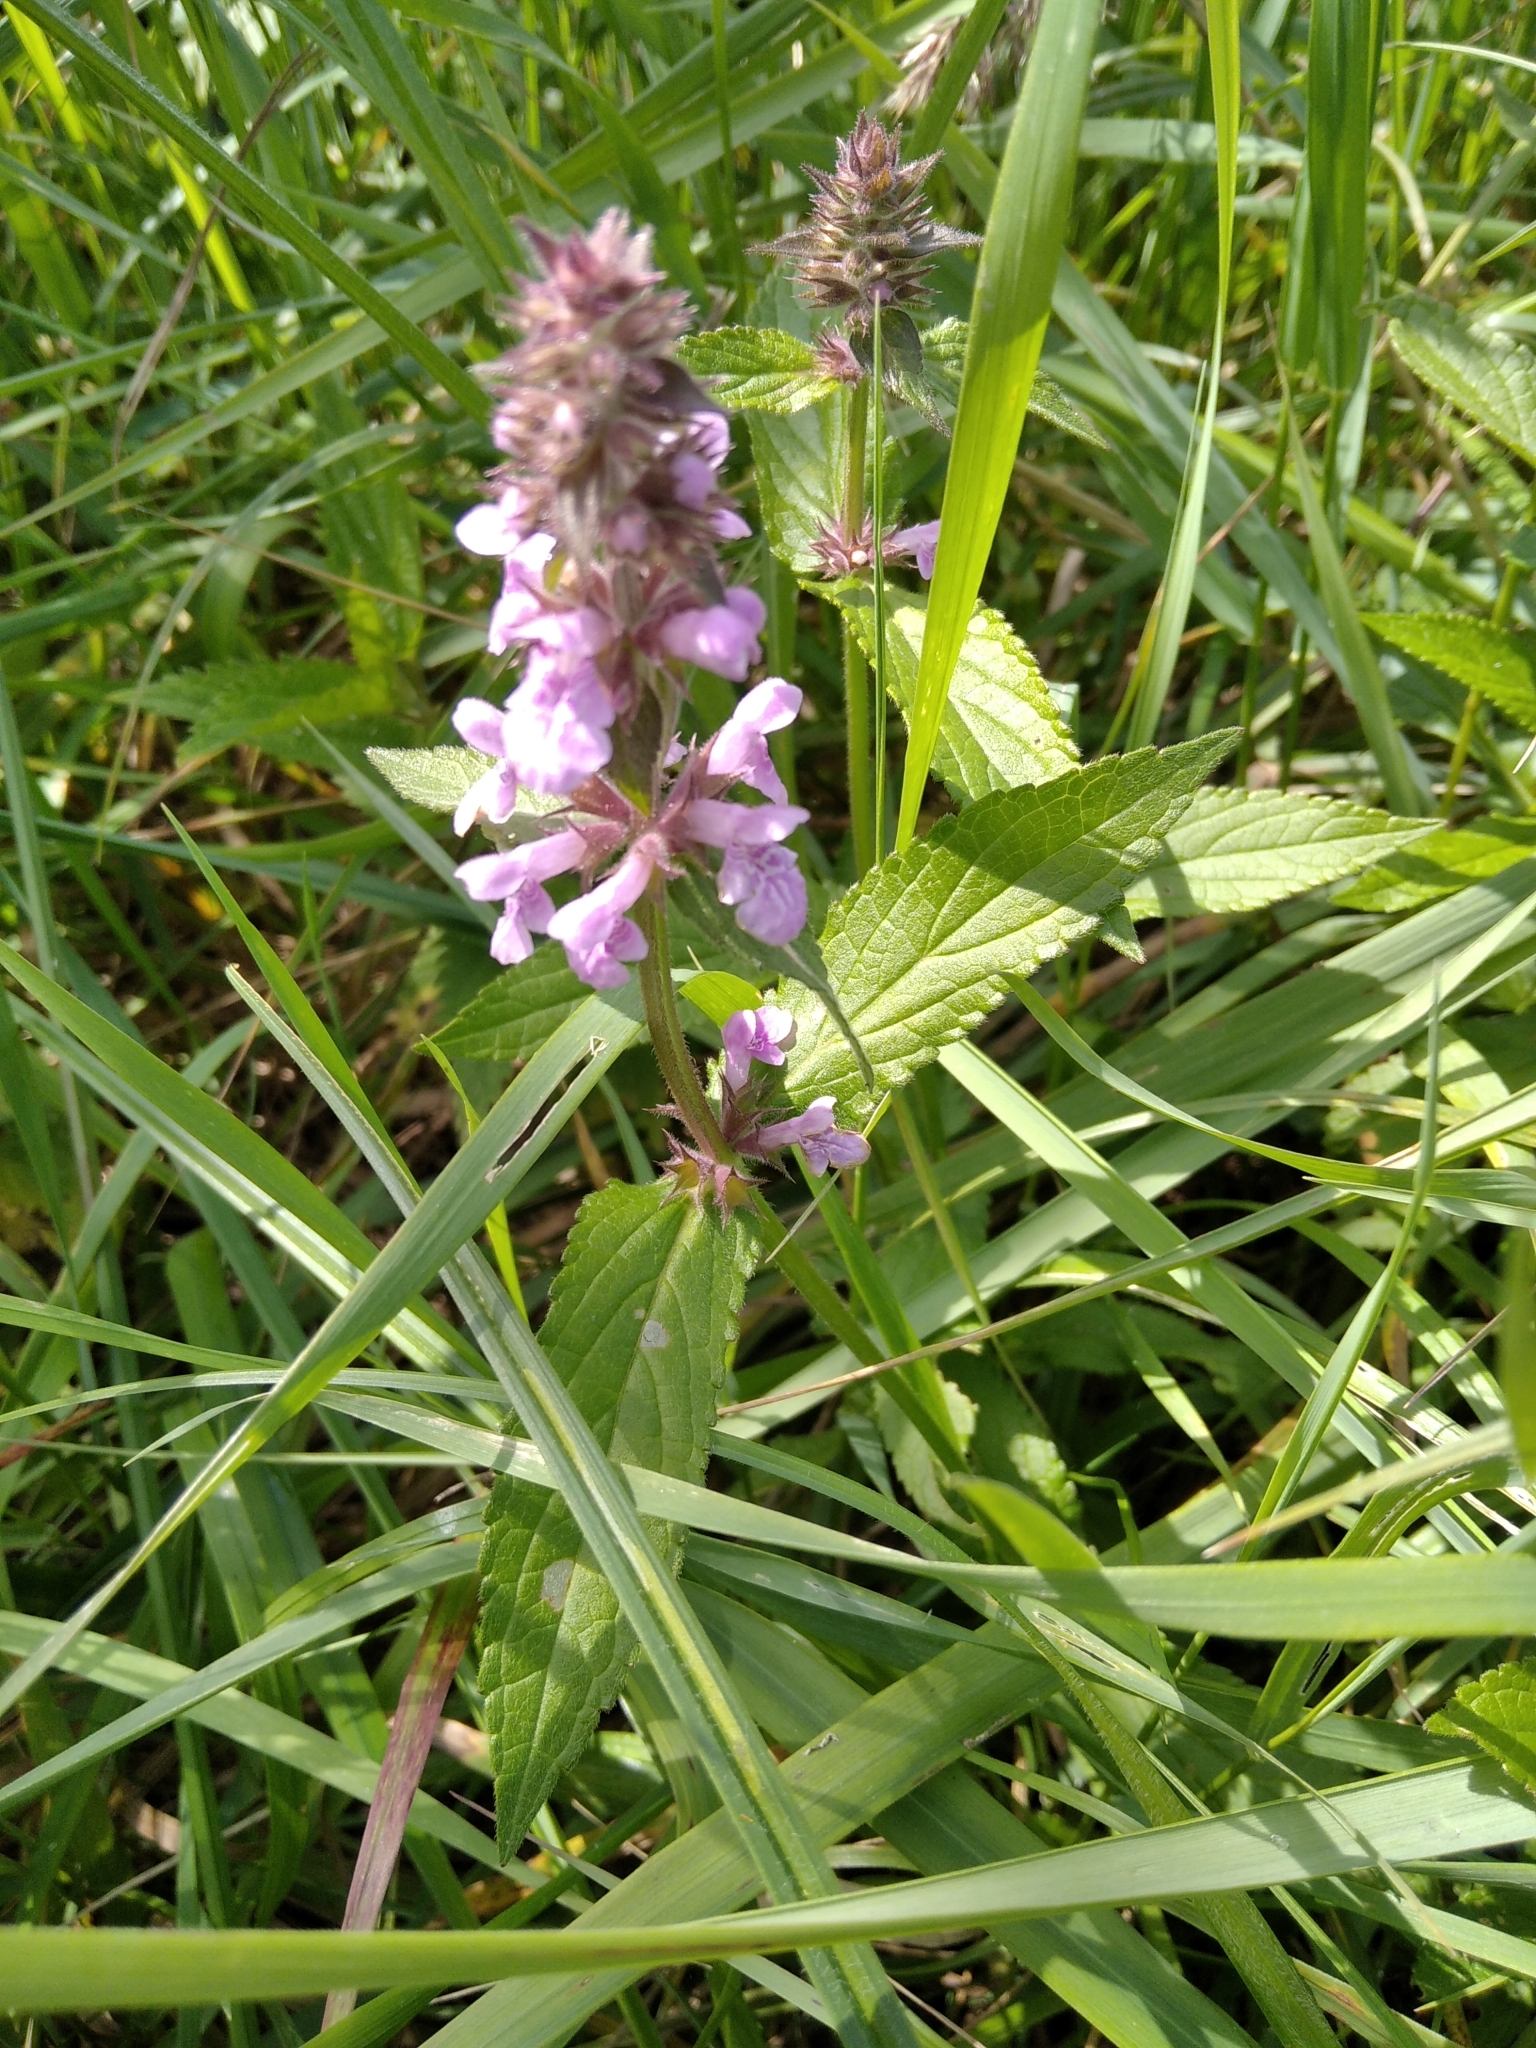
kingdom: Plantae
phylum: Tracheophyta
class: Magnoliopsida
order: Lamiales
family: Lamiaceae
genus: Stachys
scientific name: Stachys palustris
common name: Marsh woundwort
